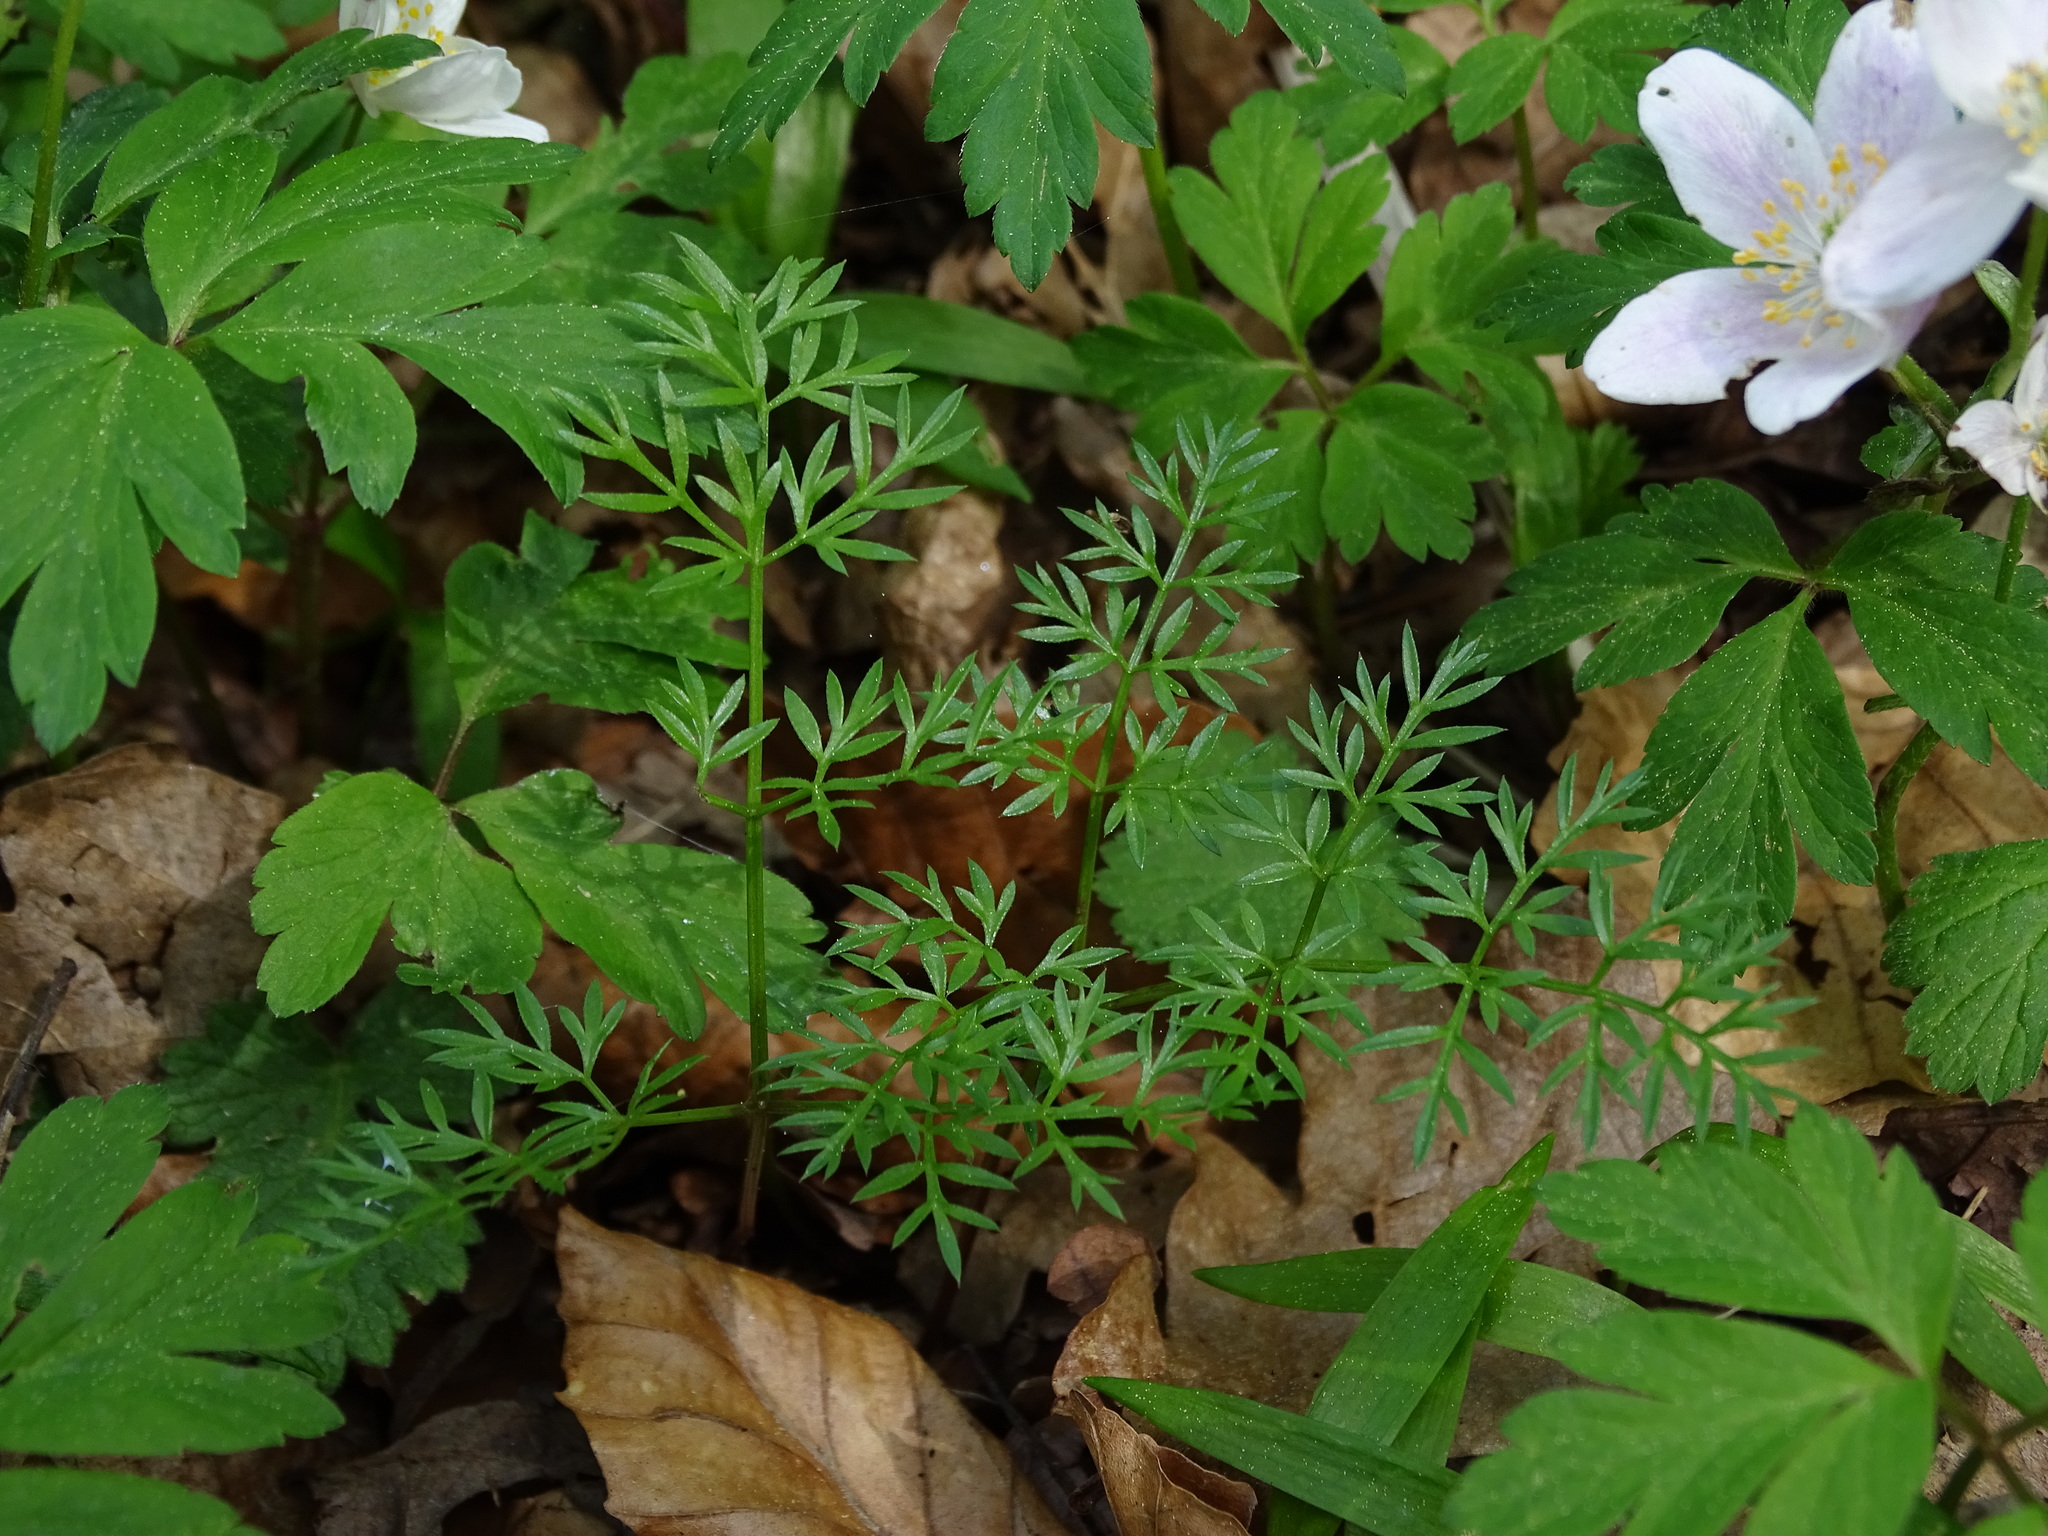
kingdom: Plantae
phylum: Tracheophyta
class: Magnoliopsida
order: Apiales
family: Apiaceae
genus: Conopodium
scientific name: Conopodium majus
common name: Pignut
